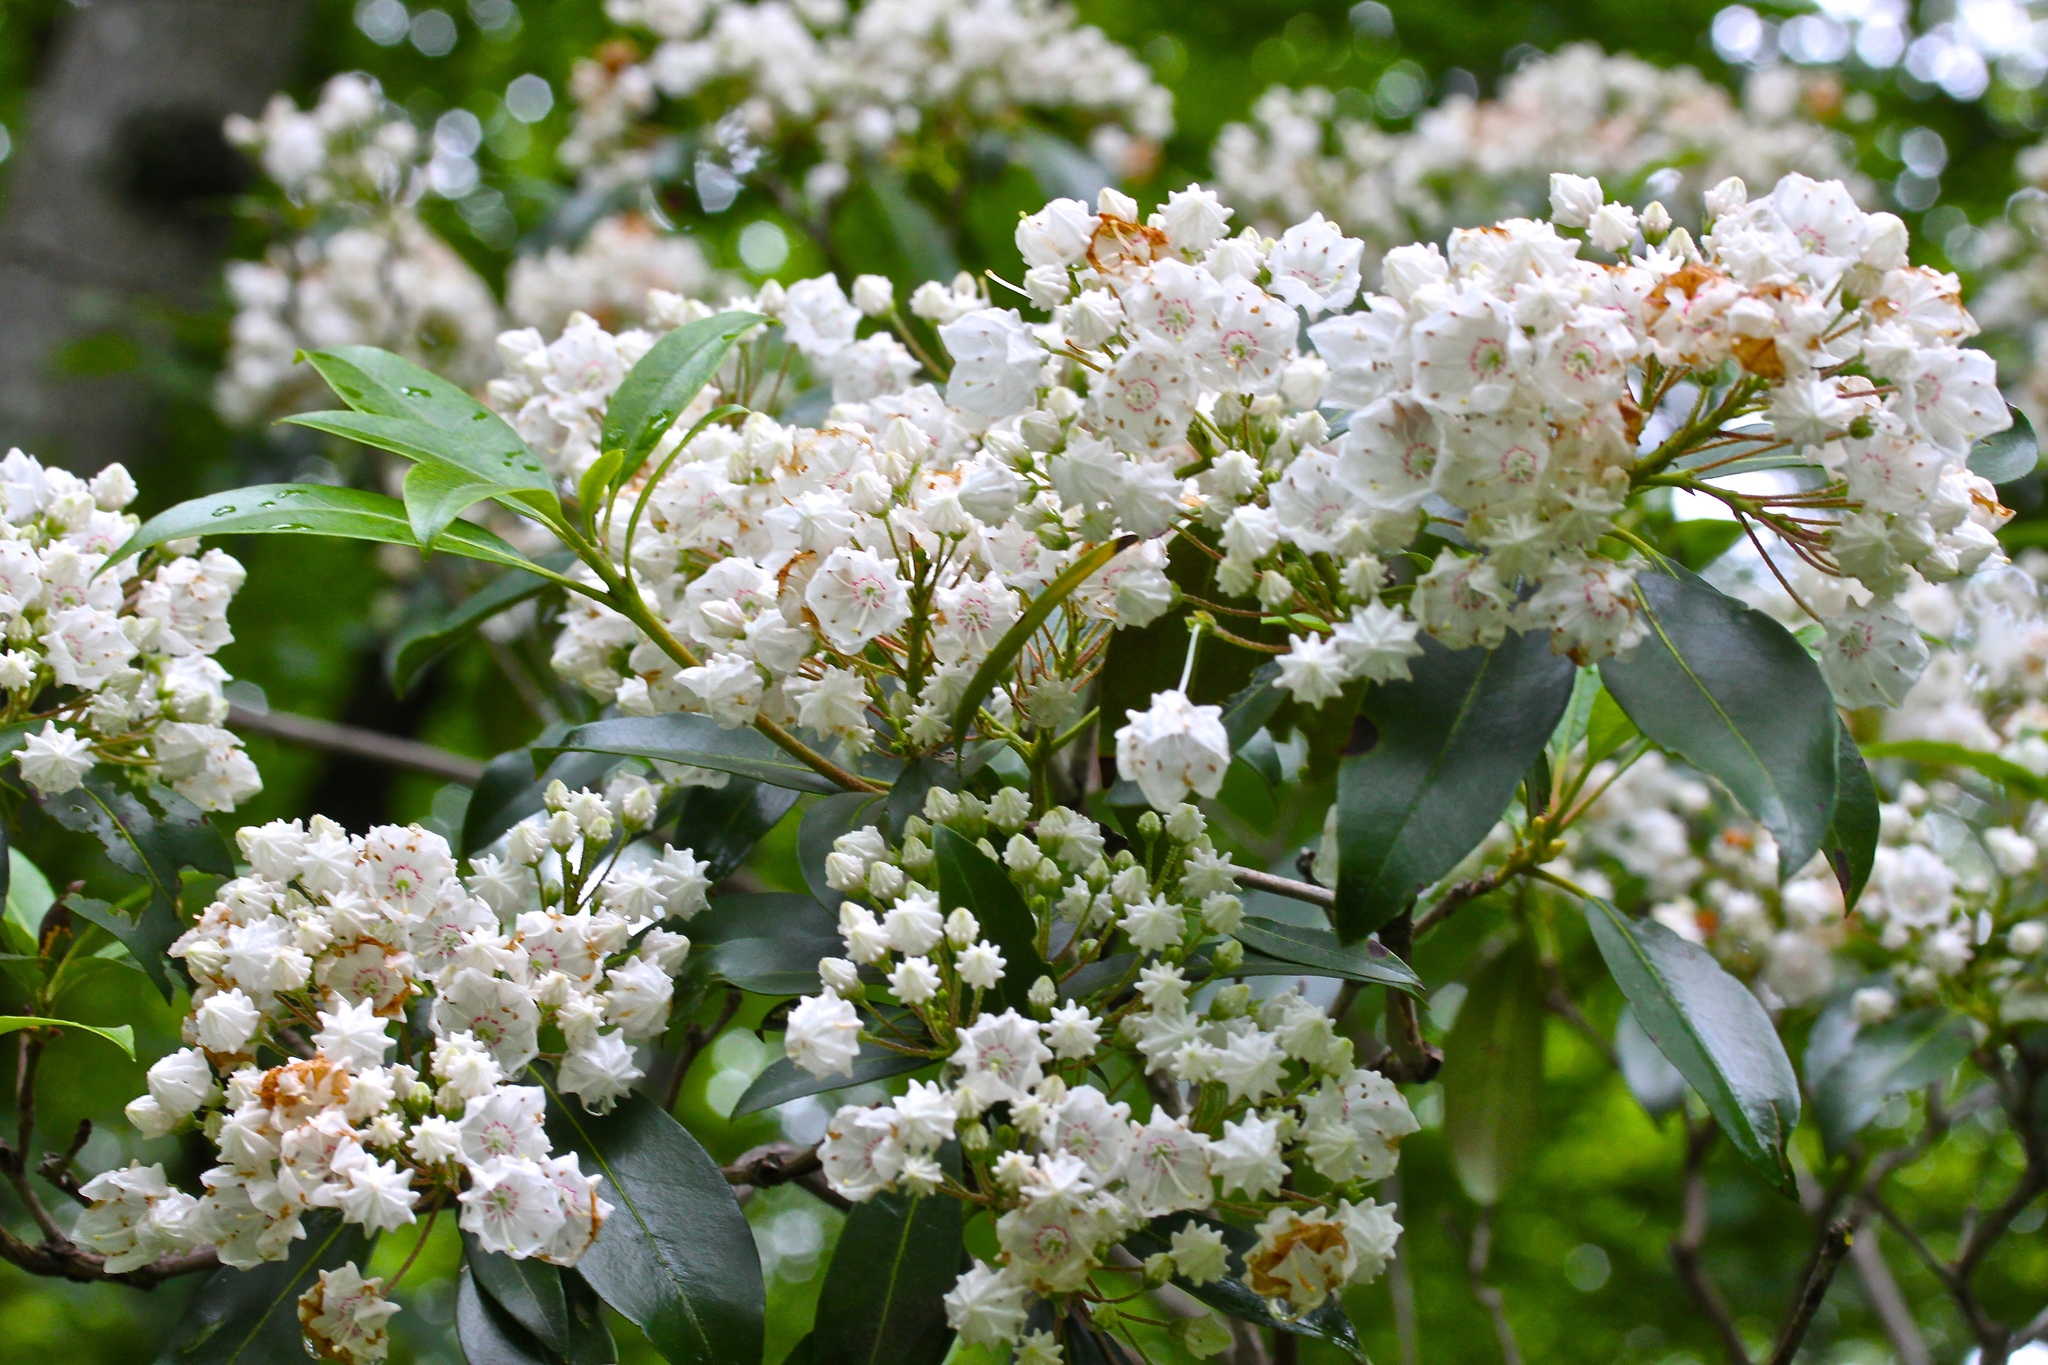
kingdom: Plantae
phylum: Tracheophyta
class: Magnoliopsida
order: Ericales
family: Ericaceae
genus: Kalmia
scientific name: Kalmia latifolia
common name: Mountain-laurel
